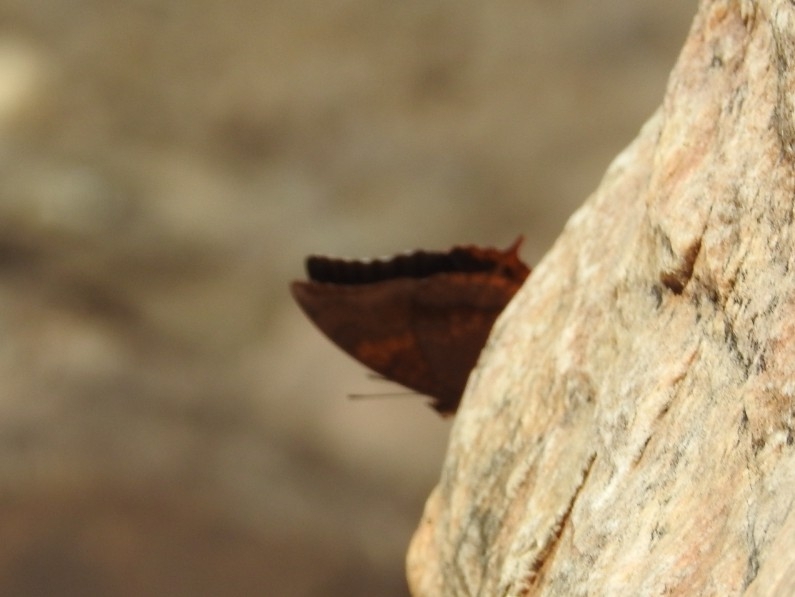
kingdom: Animalia
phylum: Arthropoda
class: Insecta
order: Lepidoptera
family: Nymphalidae
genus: Charaxes
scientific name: Charaxes psaphon
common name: Plain tawny rajah
